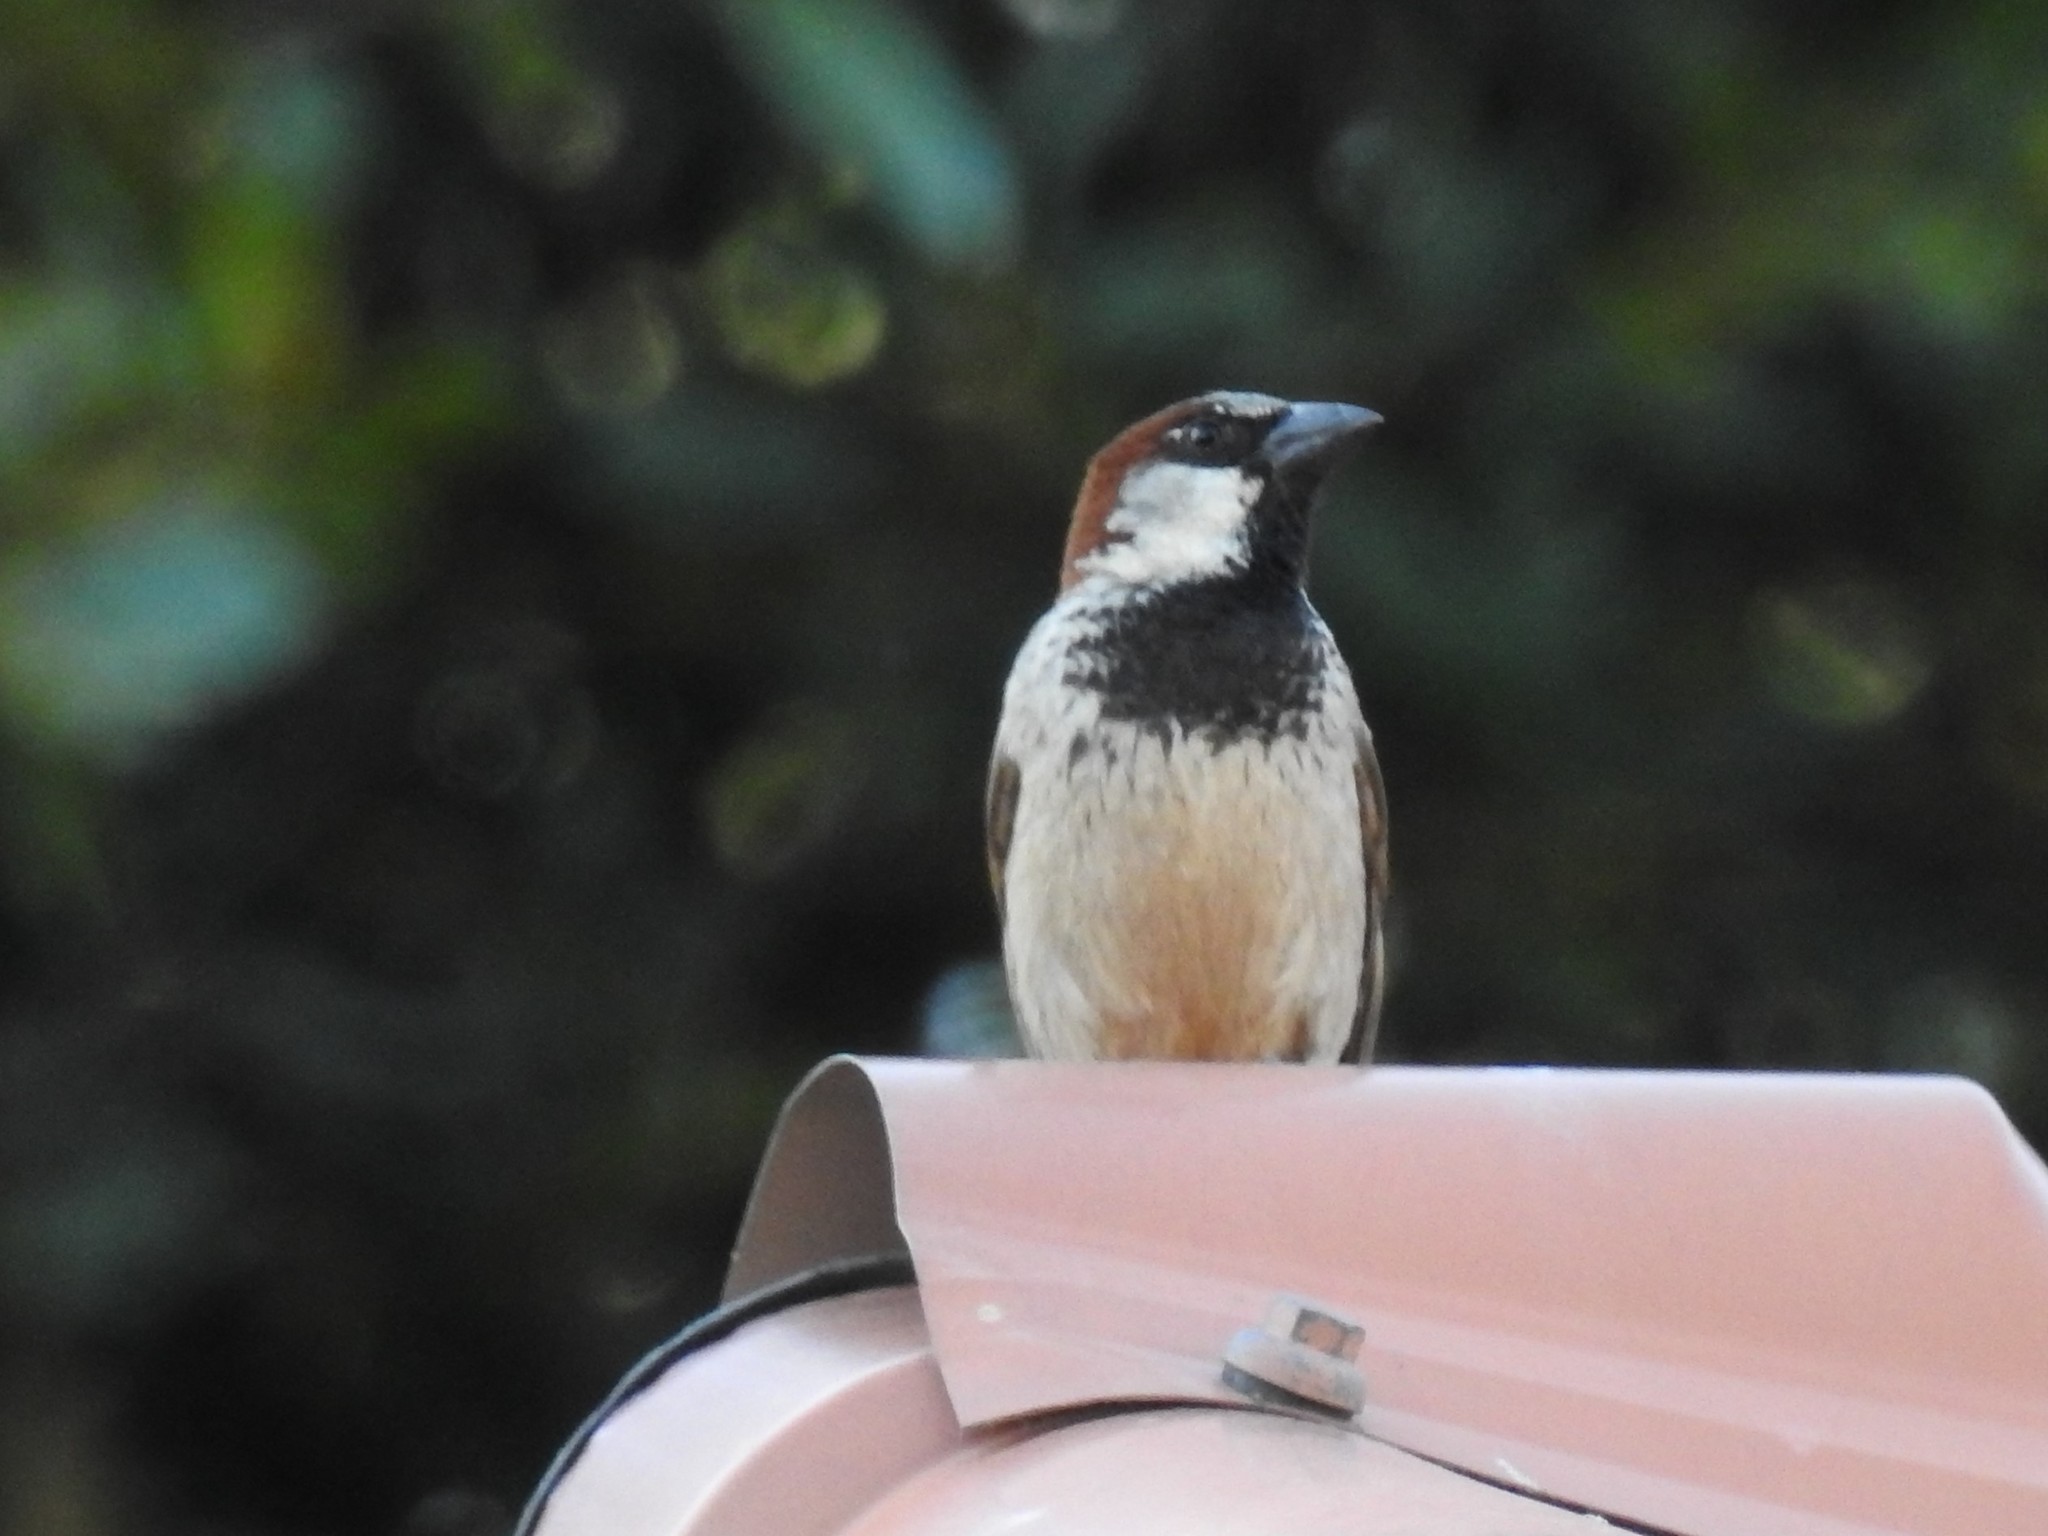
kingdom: Animalia
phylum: Chordata
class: Aves
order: Passeriformes
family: Passeridae
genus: Passer
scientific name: Passer domesticus
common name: House sparrow
